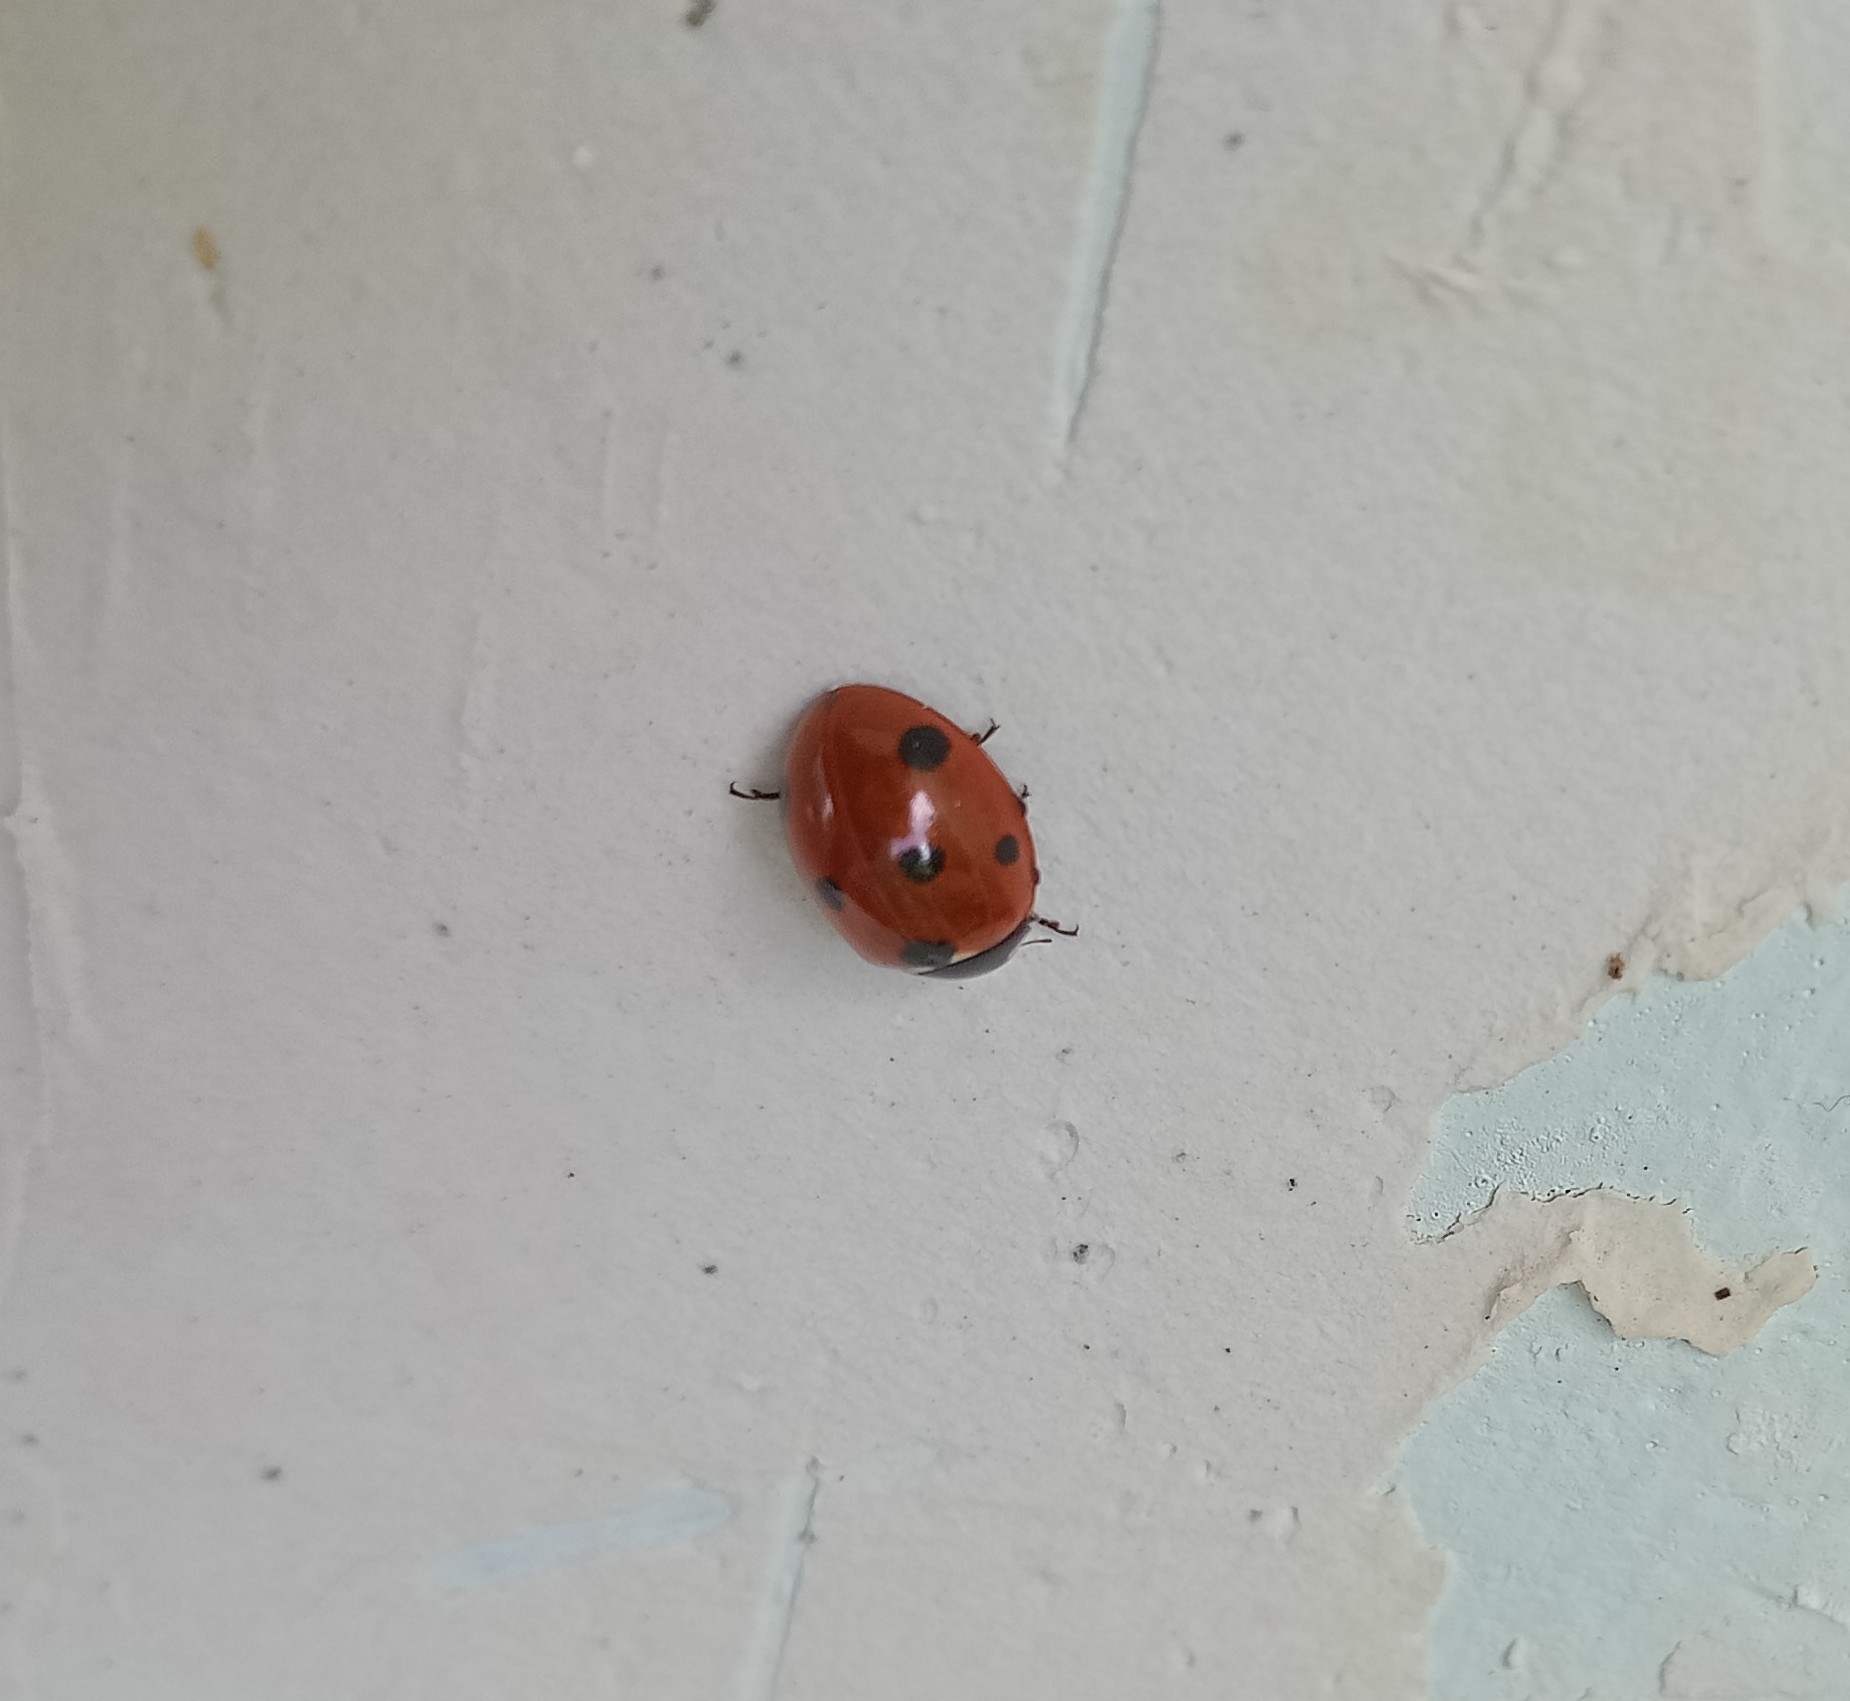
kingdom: Animalia
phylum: Arthropoda
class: Insecta
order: Coleoptera
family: Coccinellidae
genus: Coccinella
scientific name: Coccinella septempunctata
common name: Sevenspotted lady beetle
